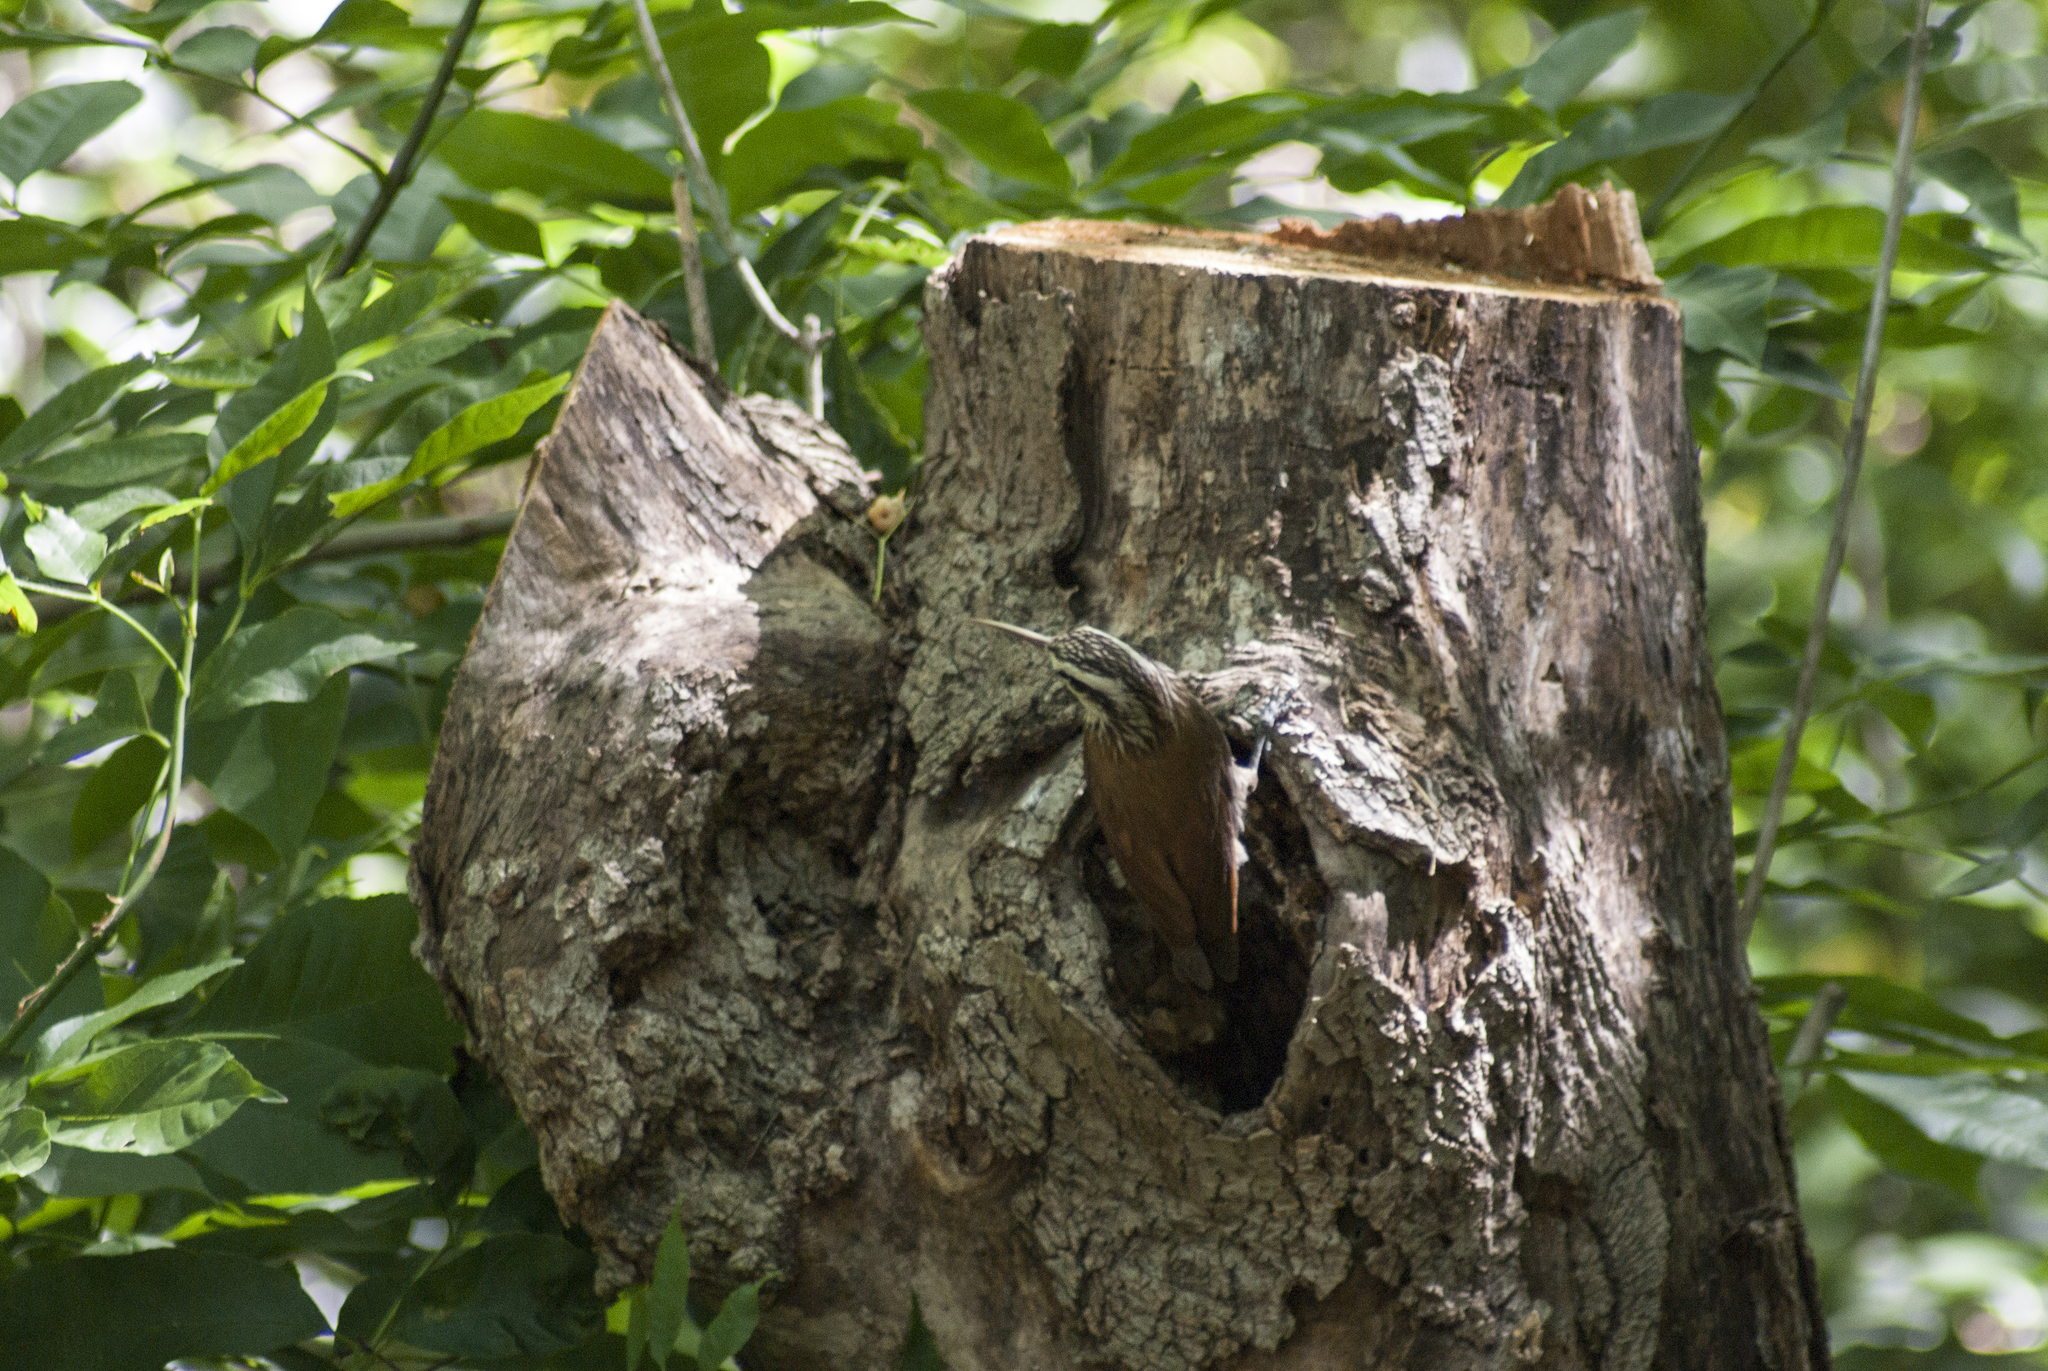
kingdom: Animalia
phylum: Chordata
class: Aves
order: Passeriformes
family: Furnariidae
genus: Lepidocolaptes
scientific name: Lepidocolaptes angustirostris
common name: Narrow-billed woodcreeper
